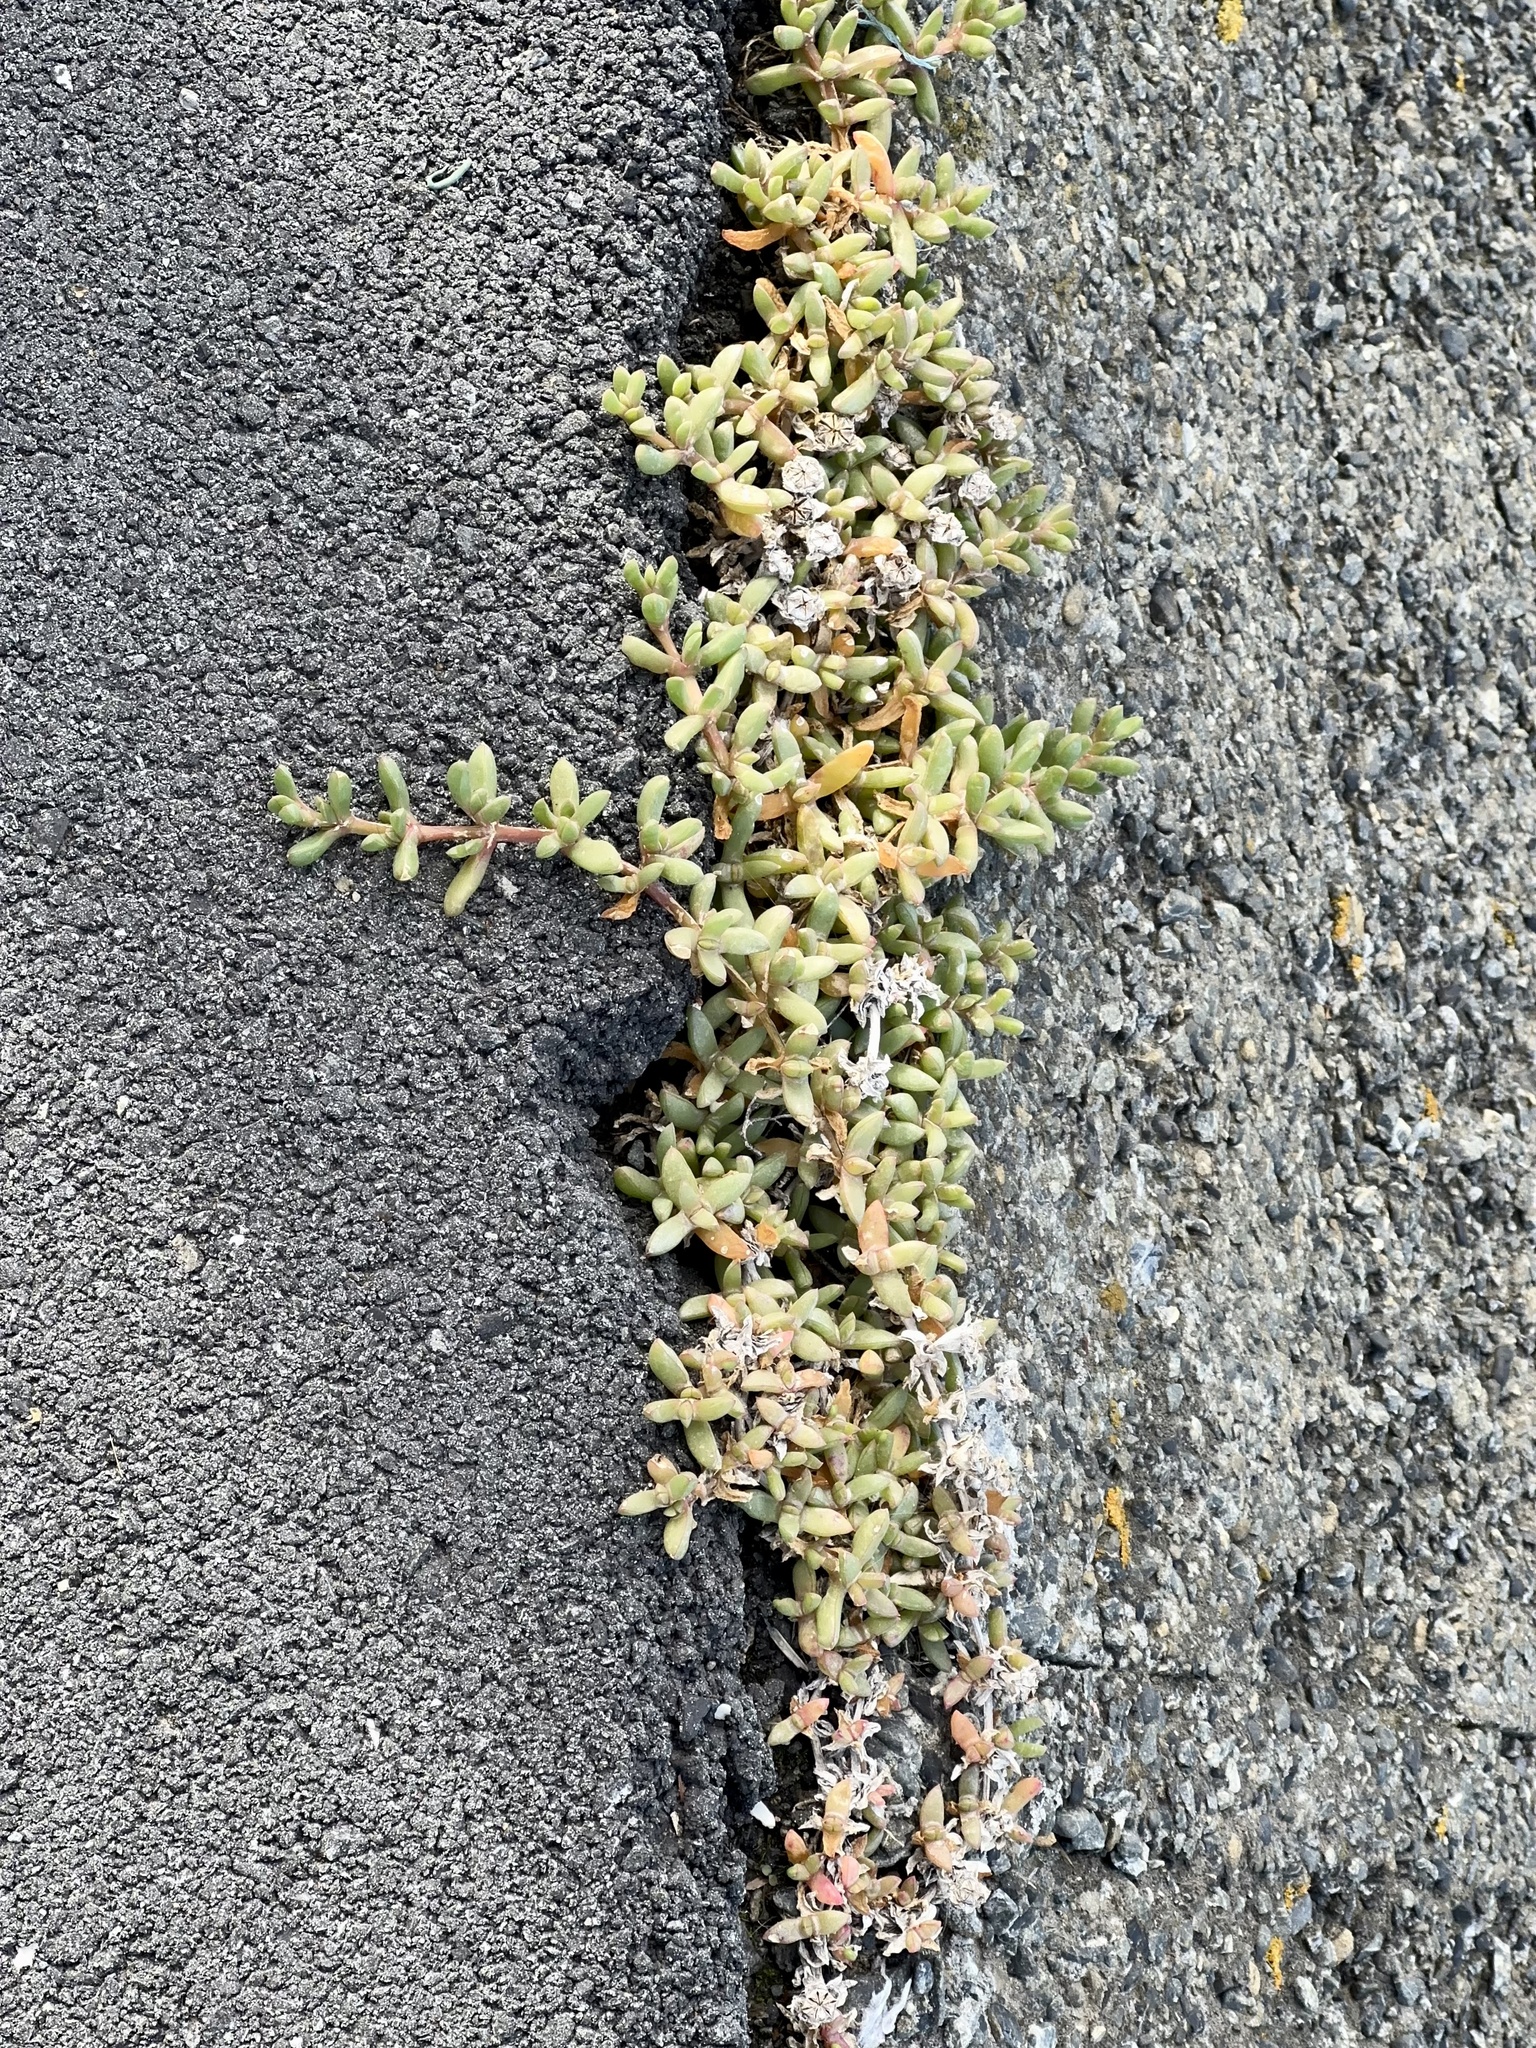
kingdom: Plantae
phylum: Tracheophyta
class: Magnoliopsida
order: Caryophyllales
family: Aizoaceae
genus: Disphyma
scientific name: Disphyma australe
